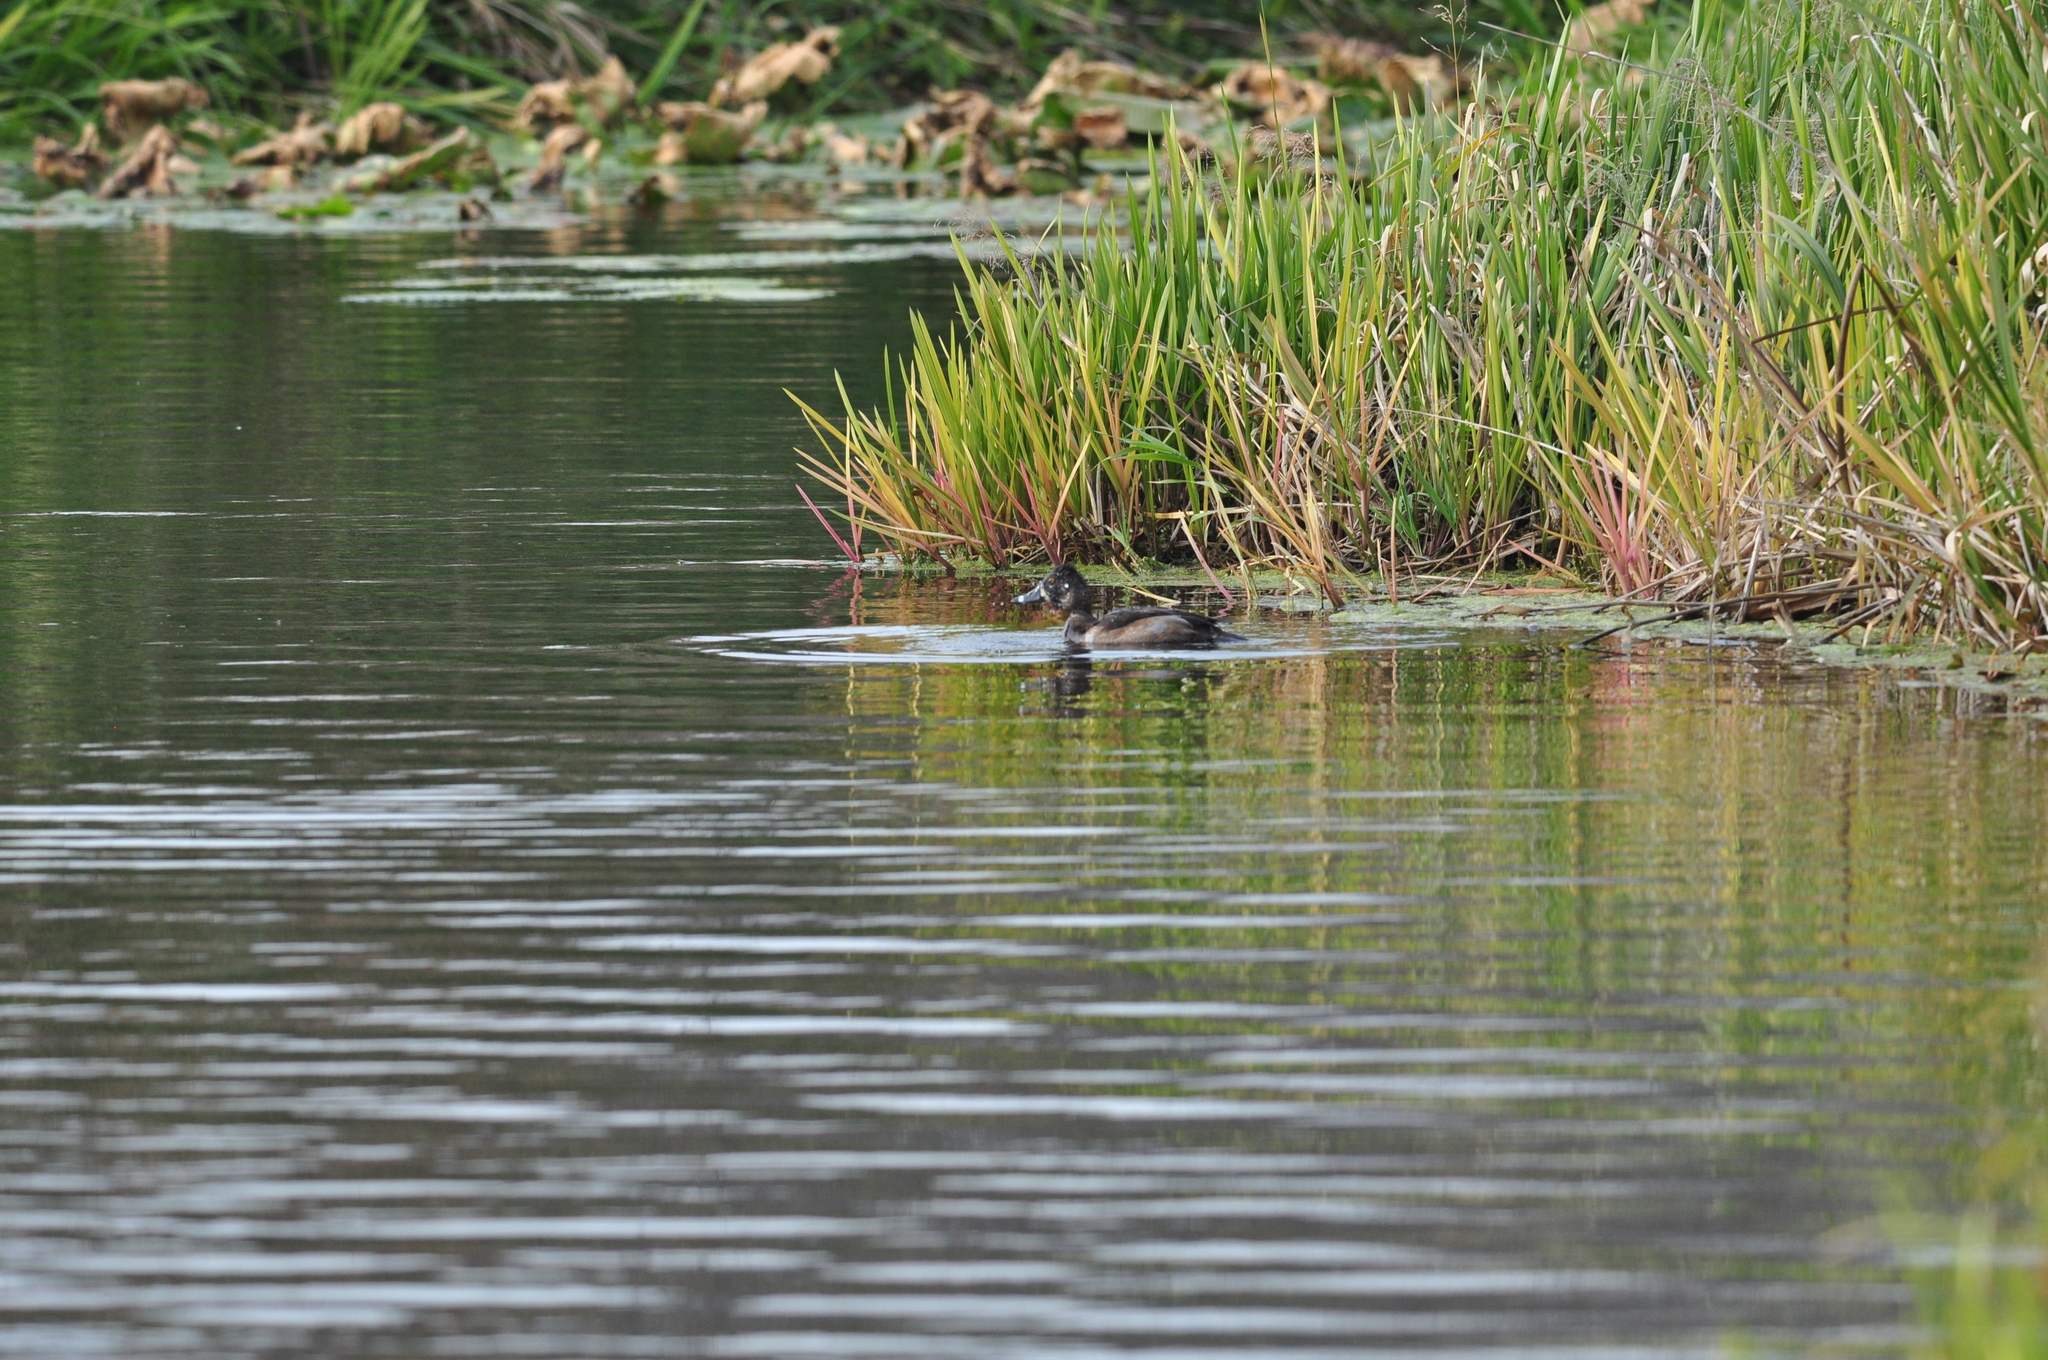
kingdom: Animalia
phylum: Chordata
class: Aves
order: Anseriformes
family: Anatidae
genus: Aythya
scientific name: Aythya collaris
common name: Ring-necked duck
